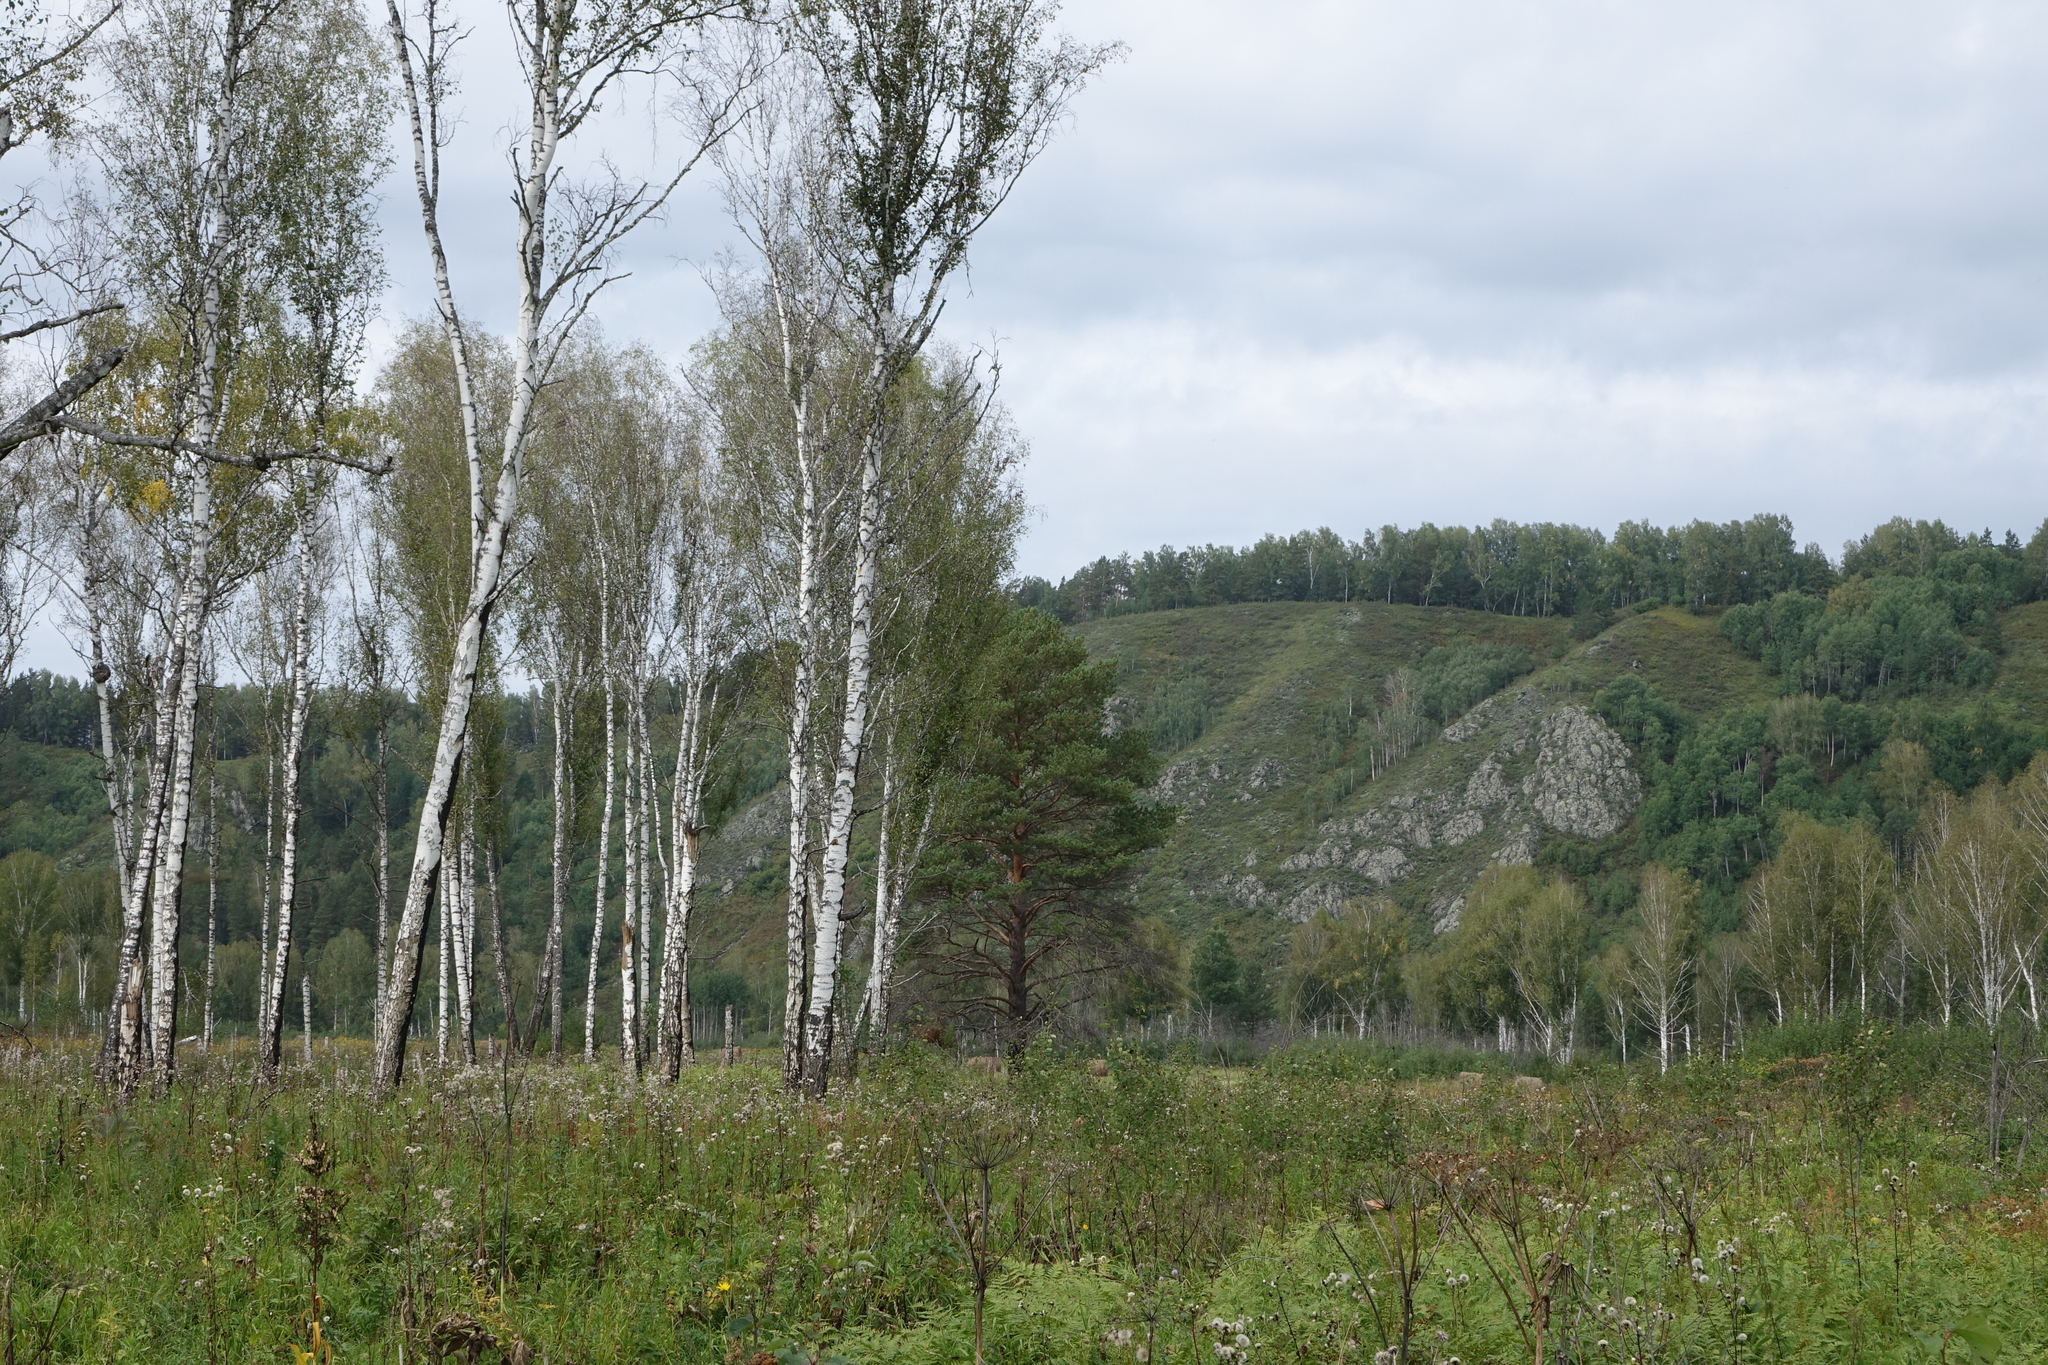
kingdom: Plantae
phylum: Tracheophyta
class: Magnoliopsida
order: Fagales
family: Betulaceae
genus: Betula
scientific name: Betula pendula
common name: Silver birch
